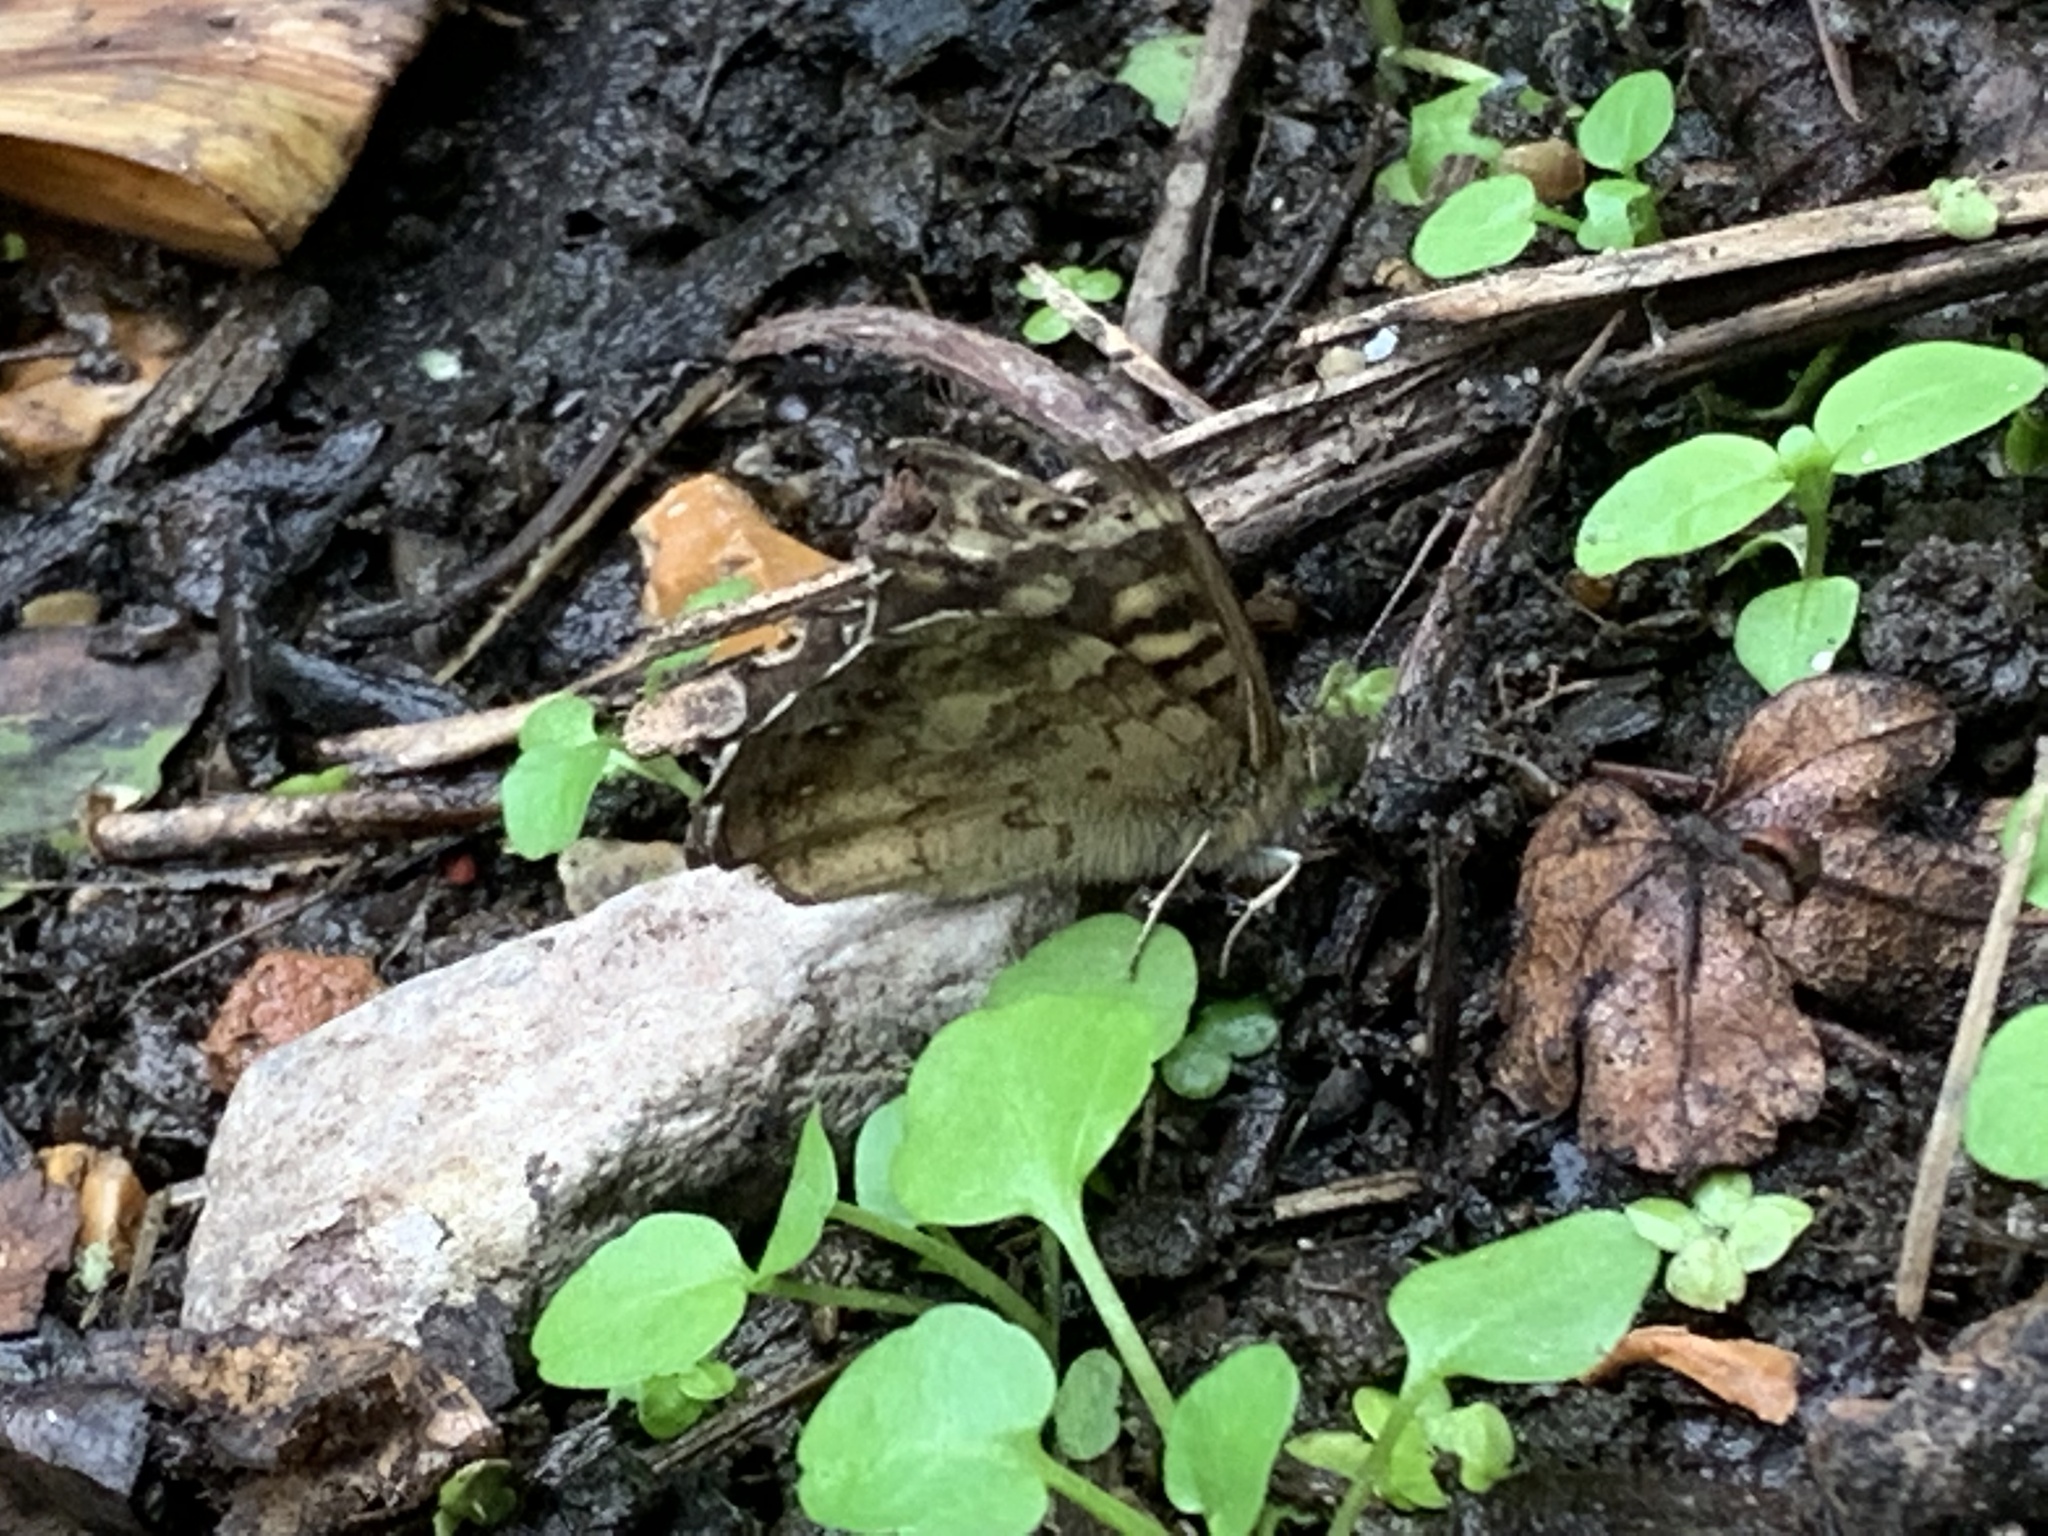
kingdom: Animalia
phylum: Arthropoda
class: Insecta
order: Lepidoptera
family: Nymphalidae
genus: Pararge
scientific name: Pararge aegeria
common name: Speckled wood
